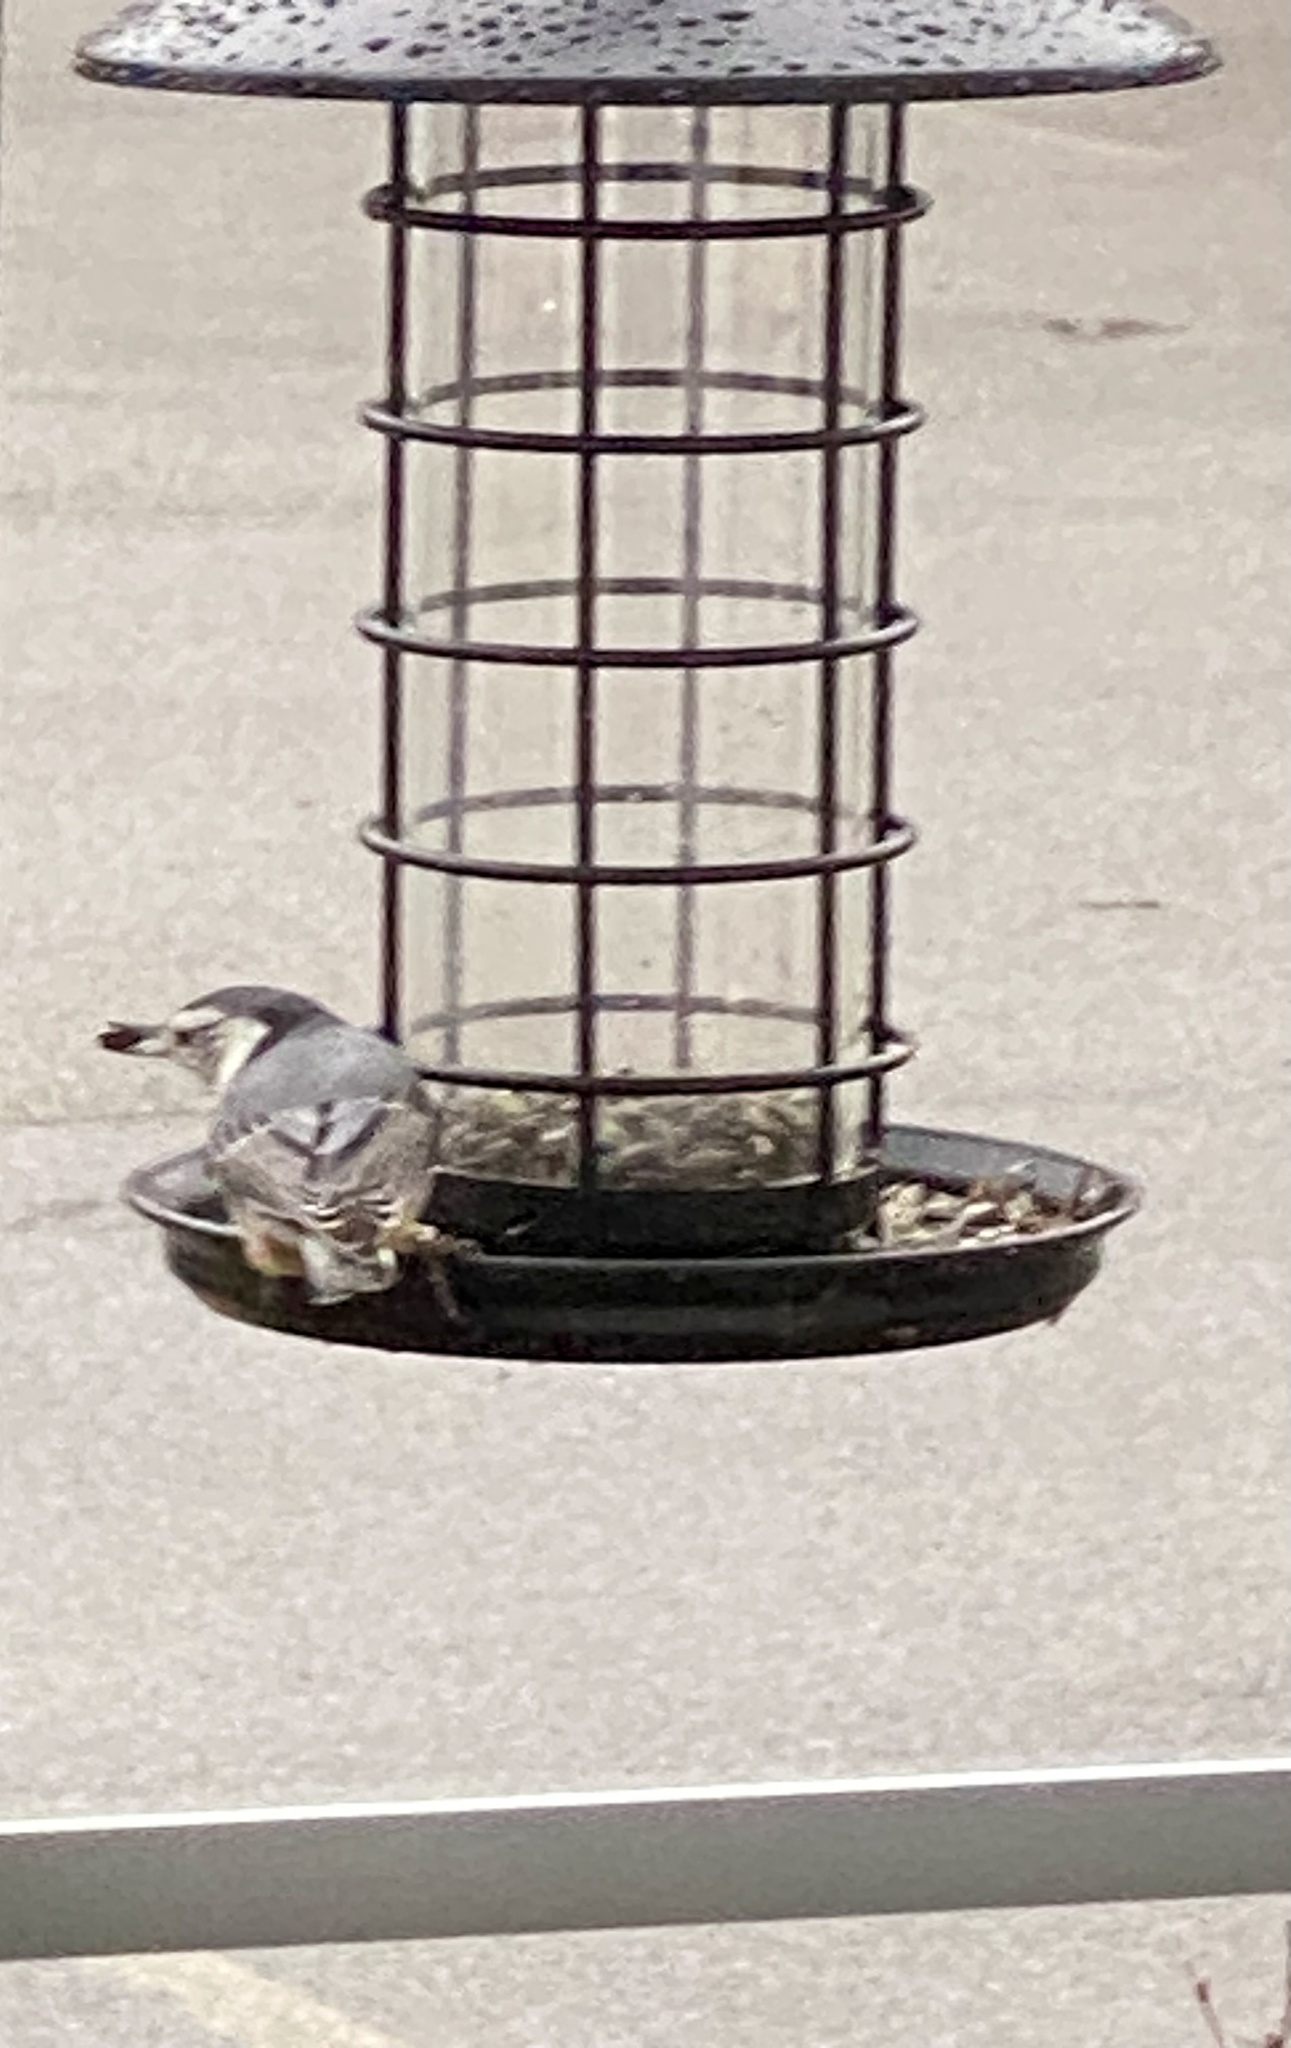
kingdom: Animalia
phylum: Chordata
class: Aves
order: Passeriformes
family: Sittidae
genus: Sitta
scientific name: Sitta carolinensis
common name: White-breasted nuthatch
